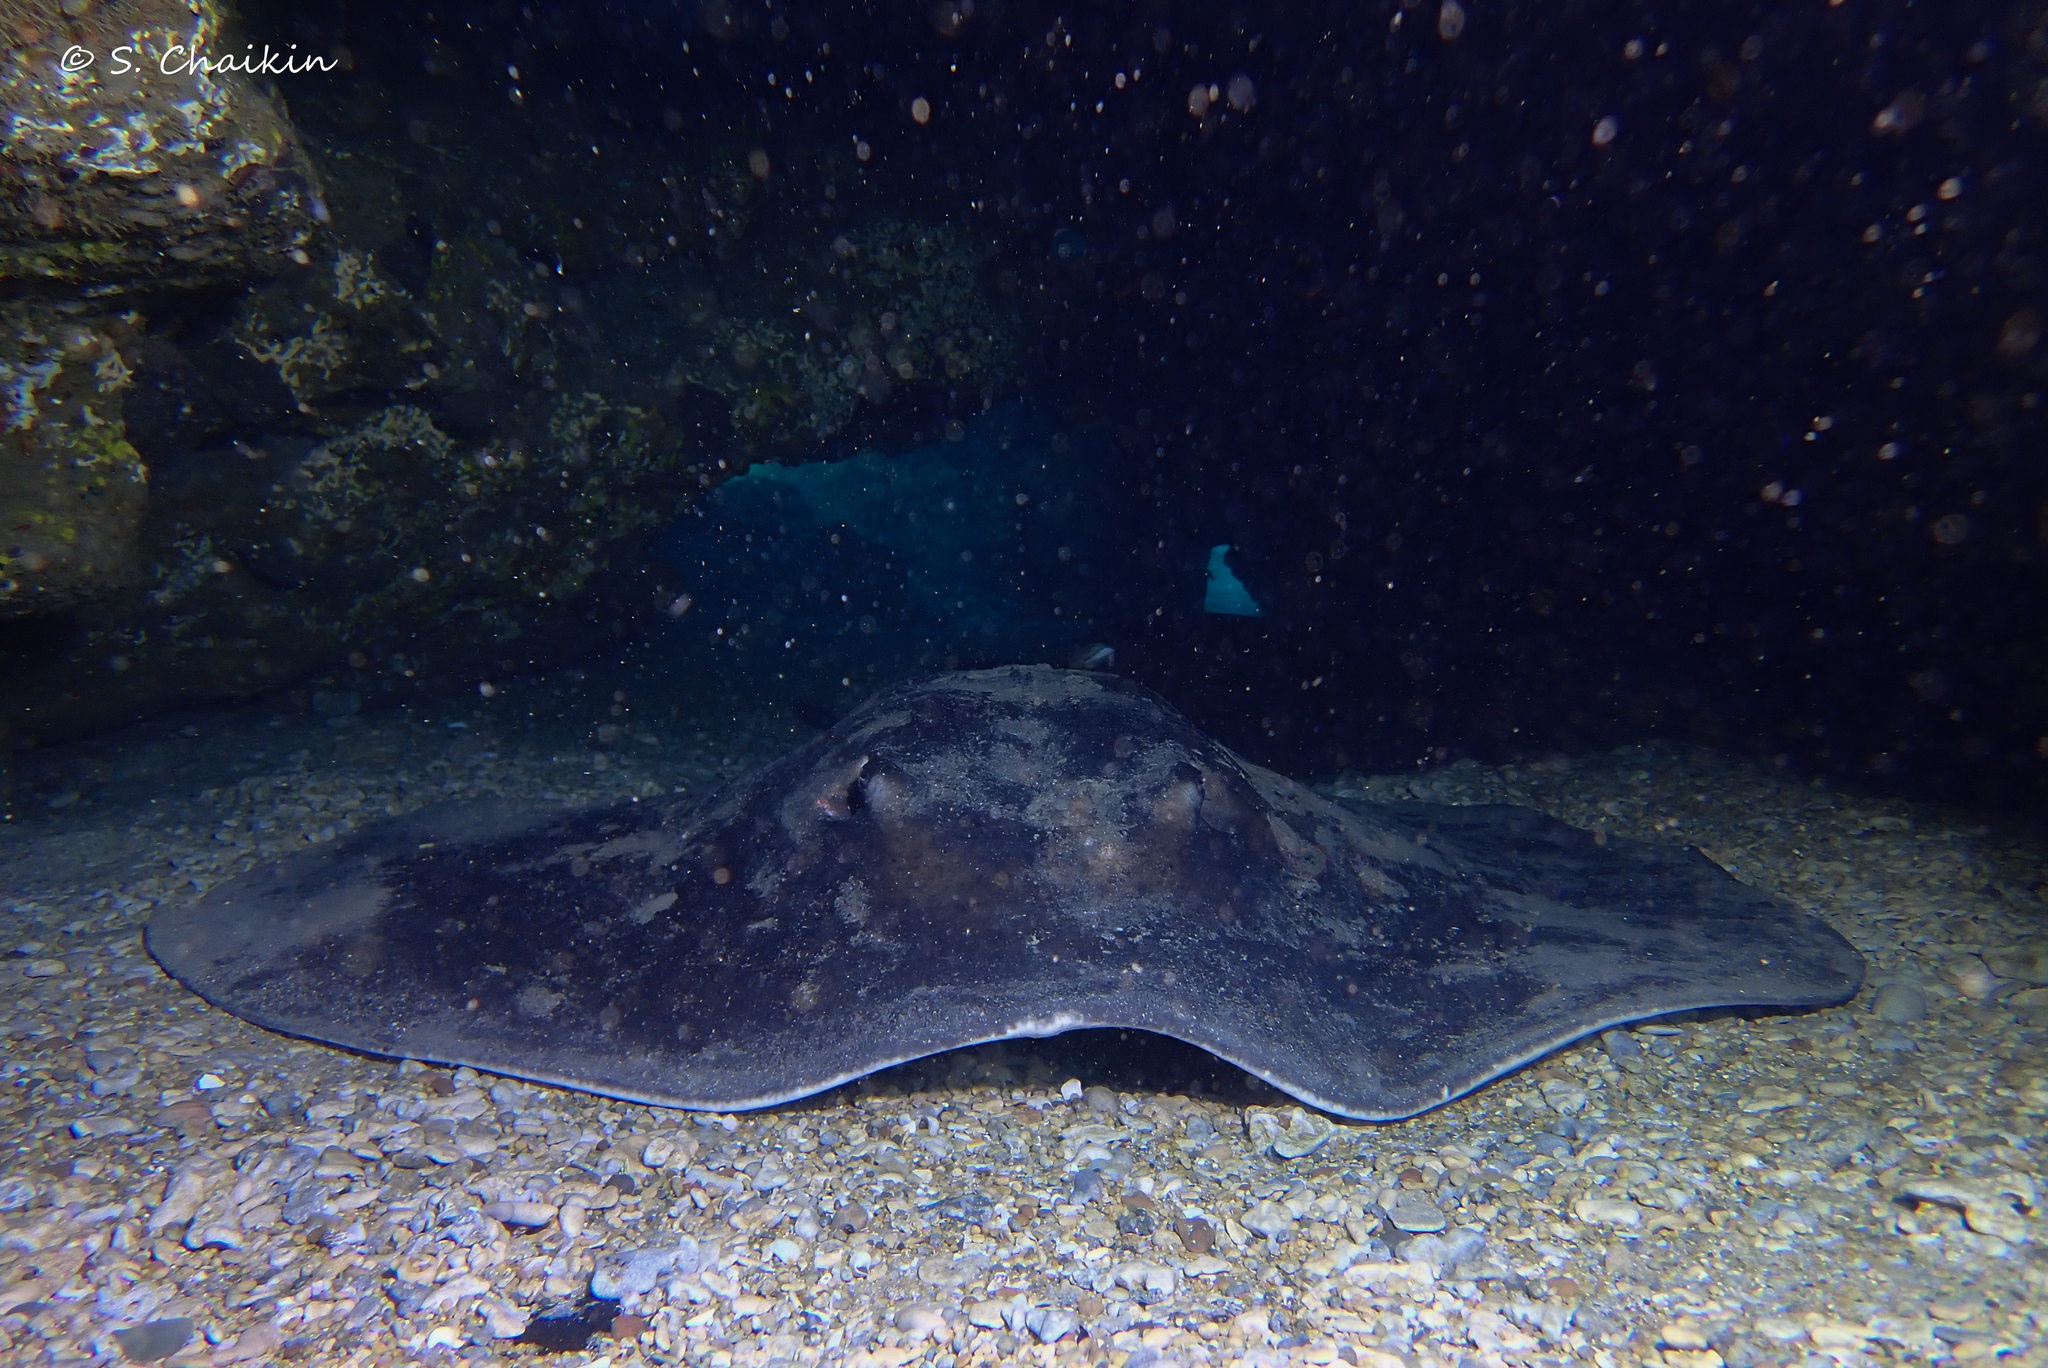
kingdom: Animalia
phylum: Chordata
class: Elasmobranchii
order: Myliobatiformes
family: Dasyatidae
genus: Taeniura
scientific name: Taeniura grabata
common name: Round stingray
